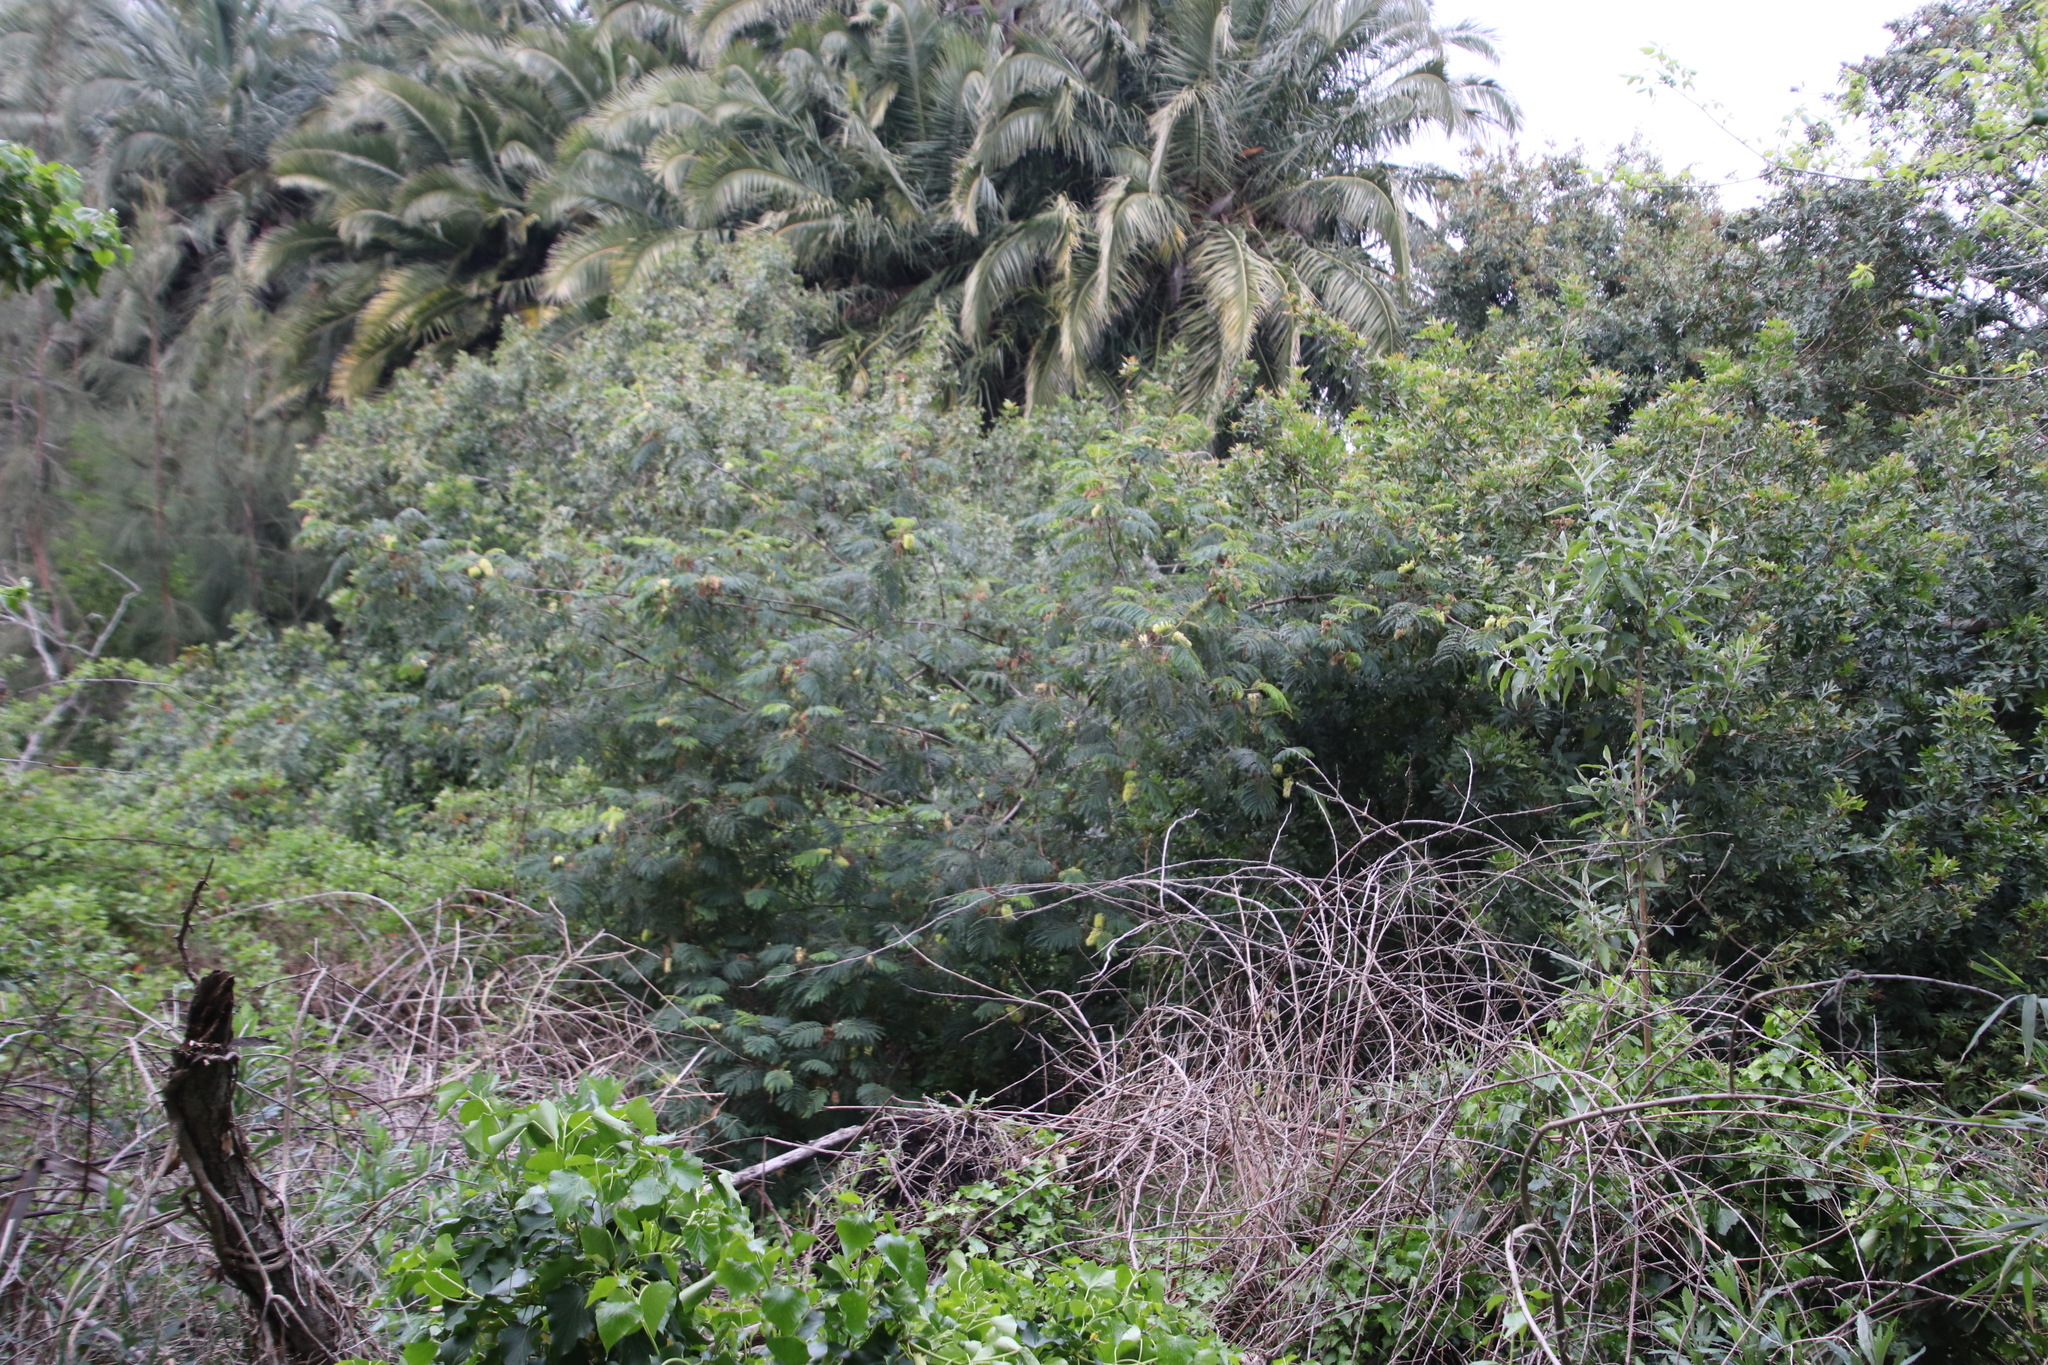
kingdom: Plantae
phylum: Tracheophyta
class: Magnoliopsida
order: Fabales
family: Fabaceae
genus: Paraserianthes
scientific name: Paraserianthes lophantha
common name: Plume albizia
